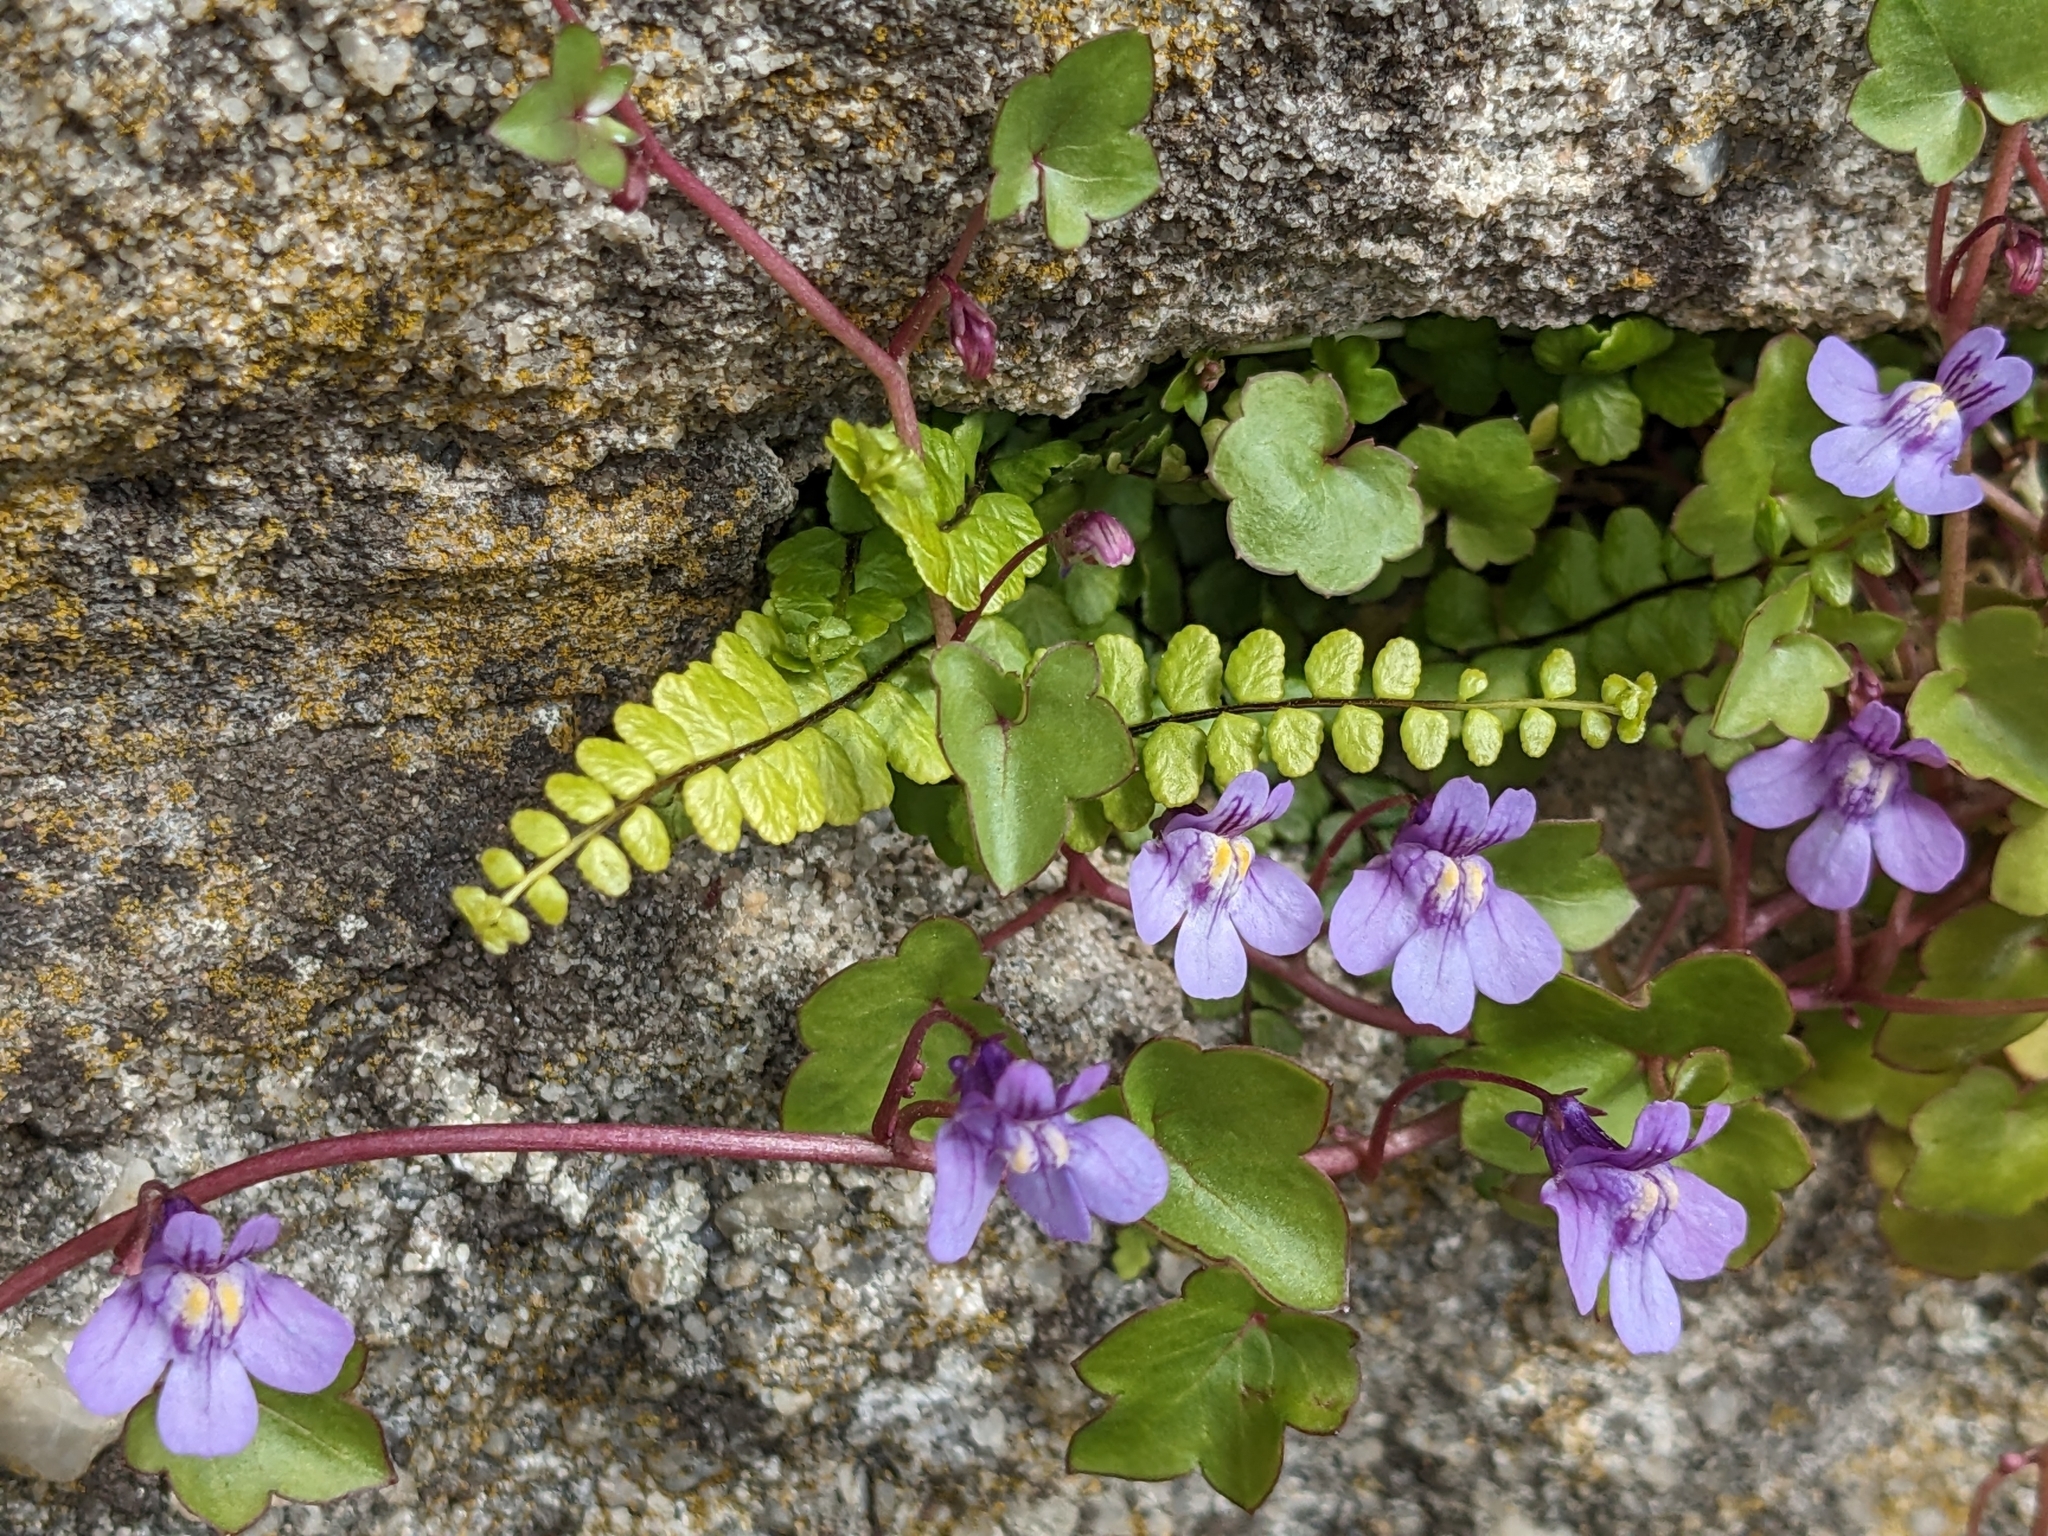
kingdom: Plantae
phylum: Tracheophyta
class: Polypodiopsida
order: Polypodiales
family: Aspleniaceae
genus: Asplenium
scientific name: Asplenium trichomanes
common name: Maidenhair spleenwort
